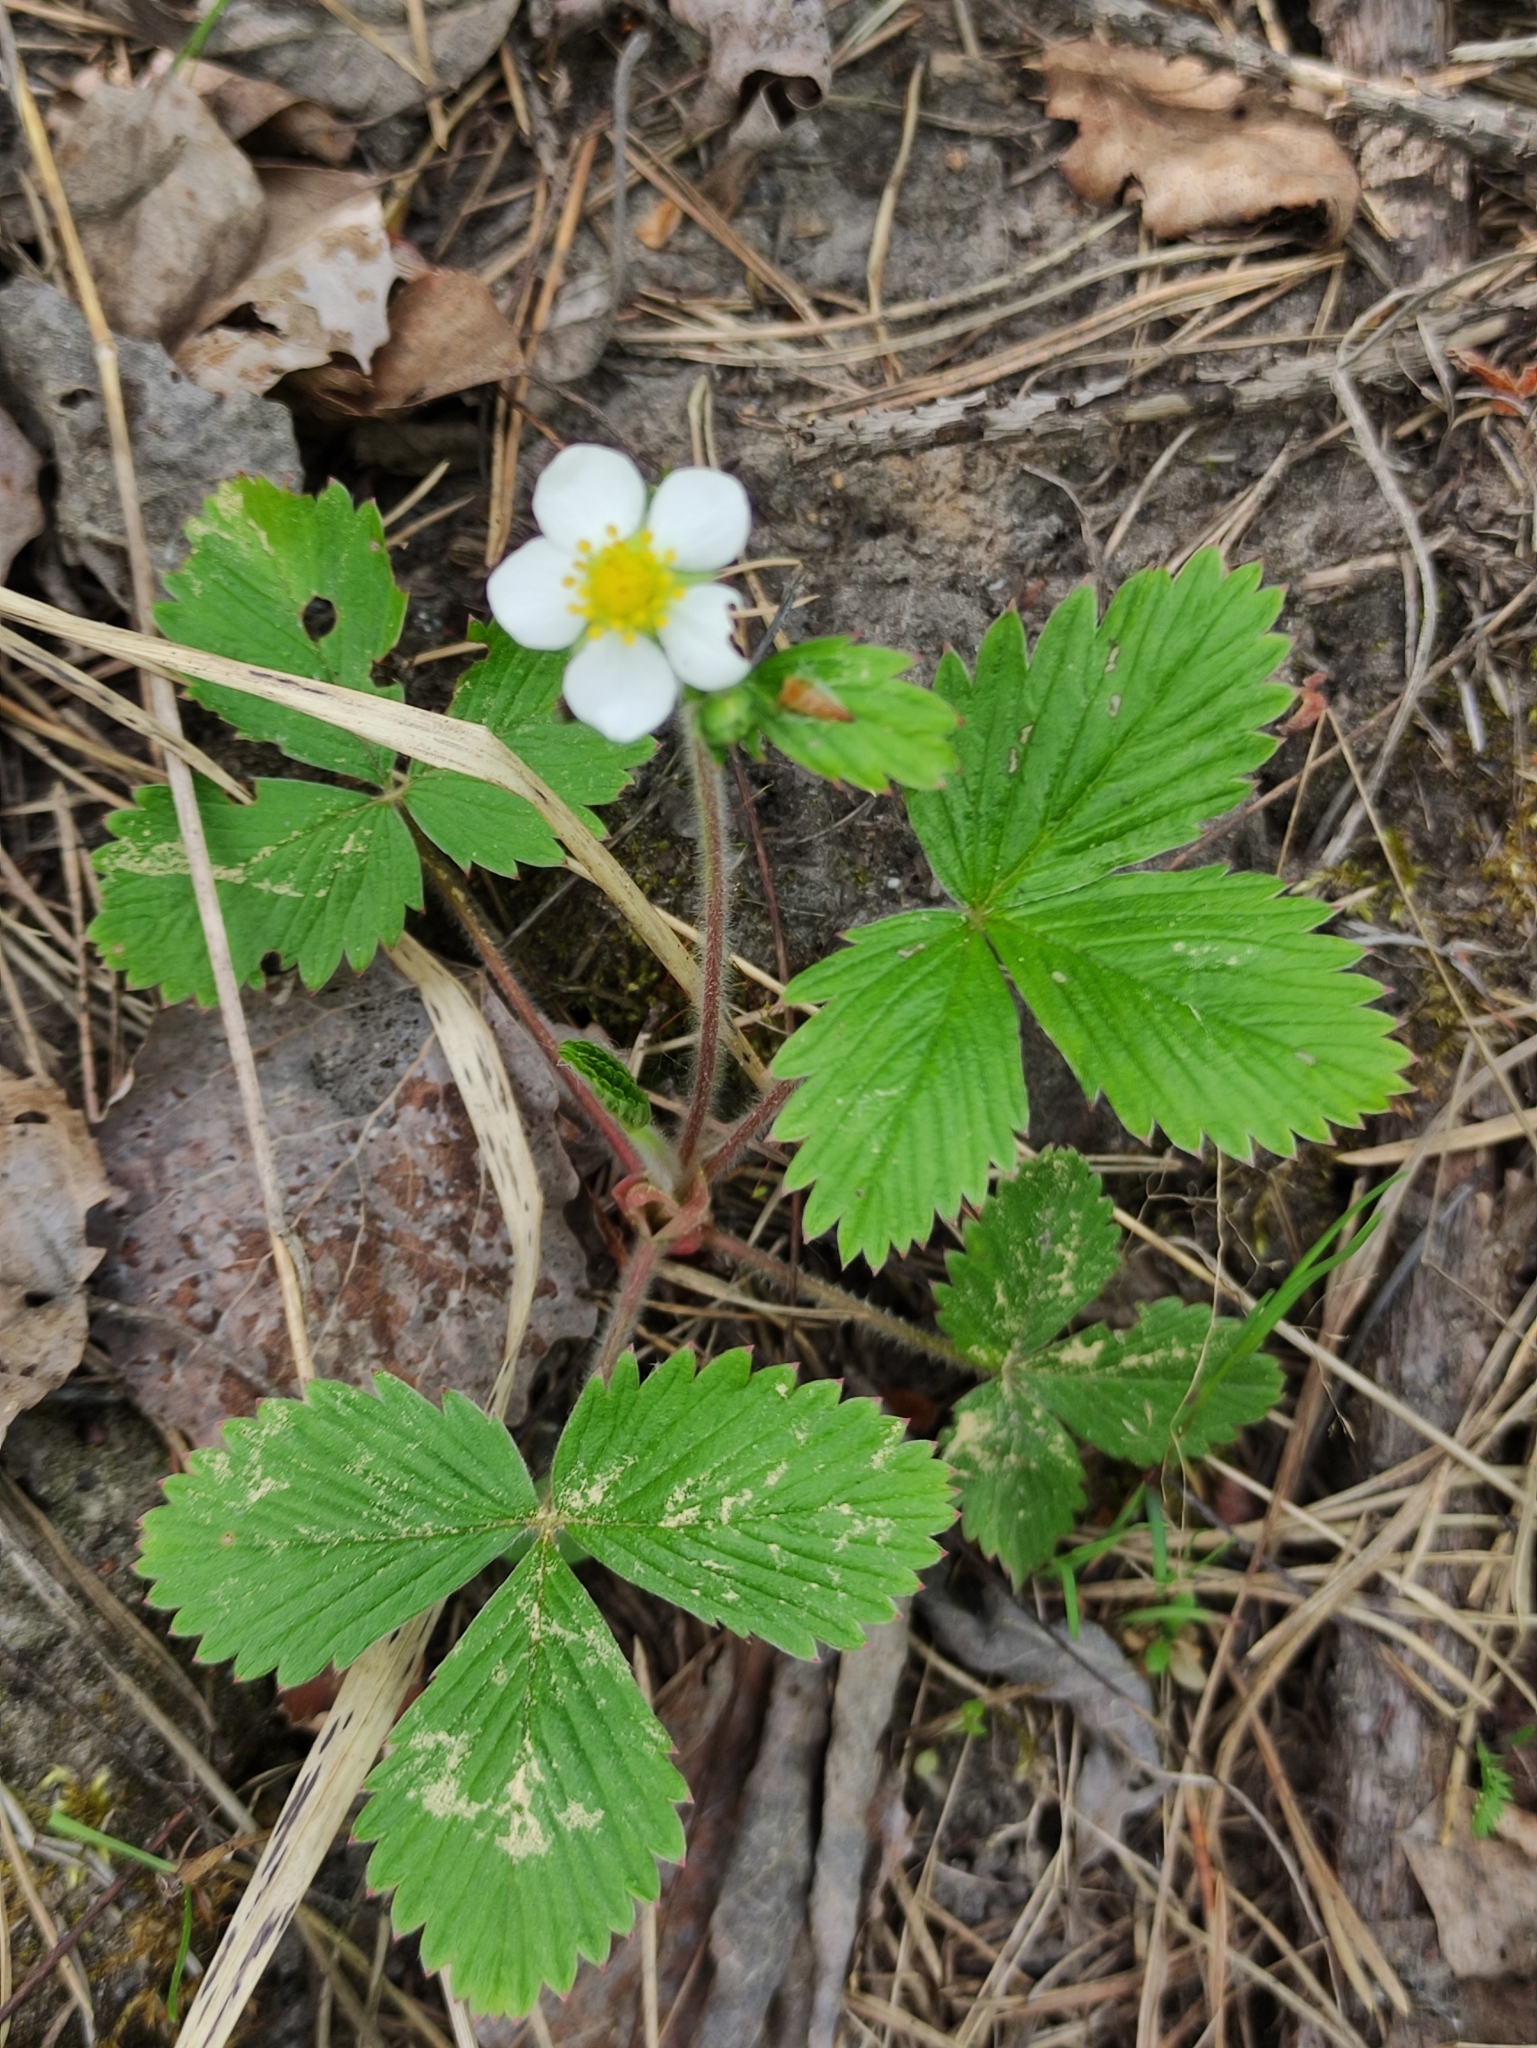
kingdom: Plantae
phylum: Tracheophyta
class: Magnoliopsida
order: Rosales
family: Rosaceae
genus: Fragaria
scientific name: Fragaria vesca
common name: Wild strawberry
